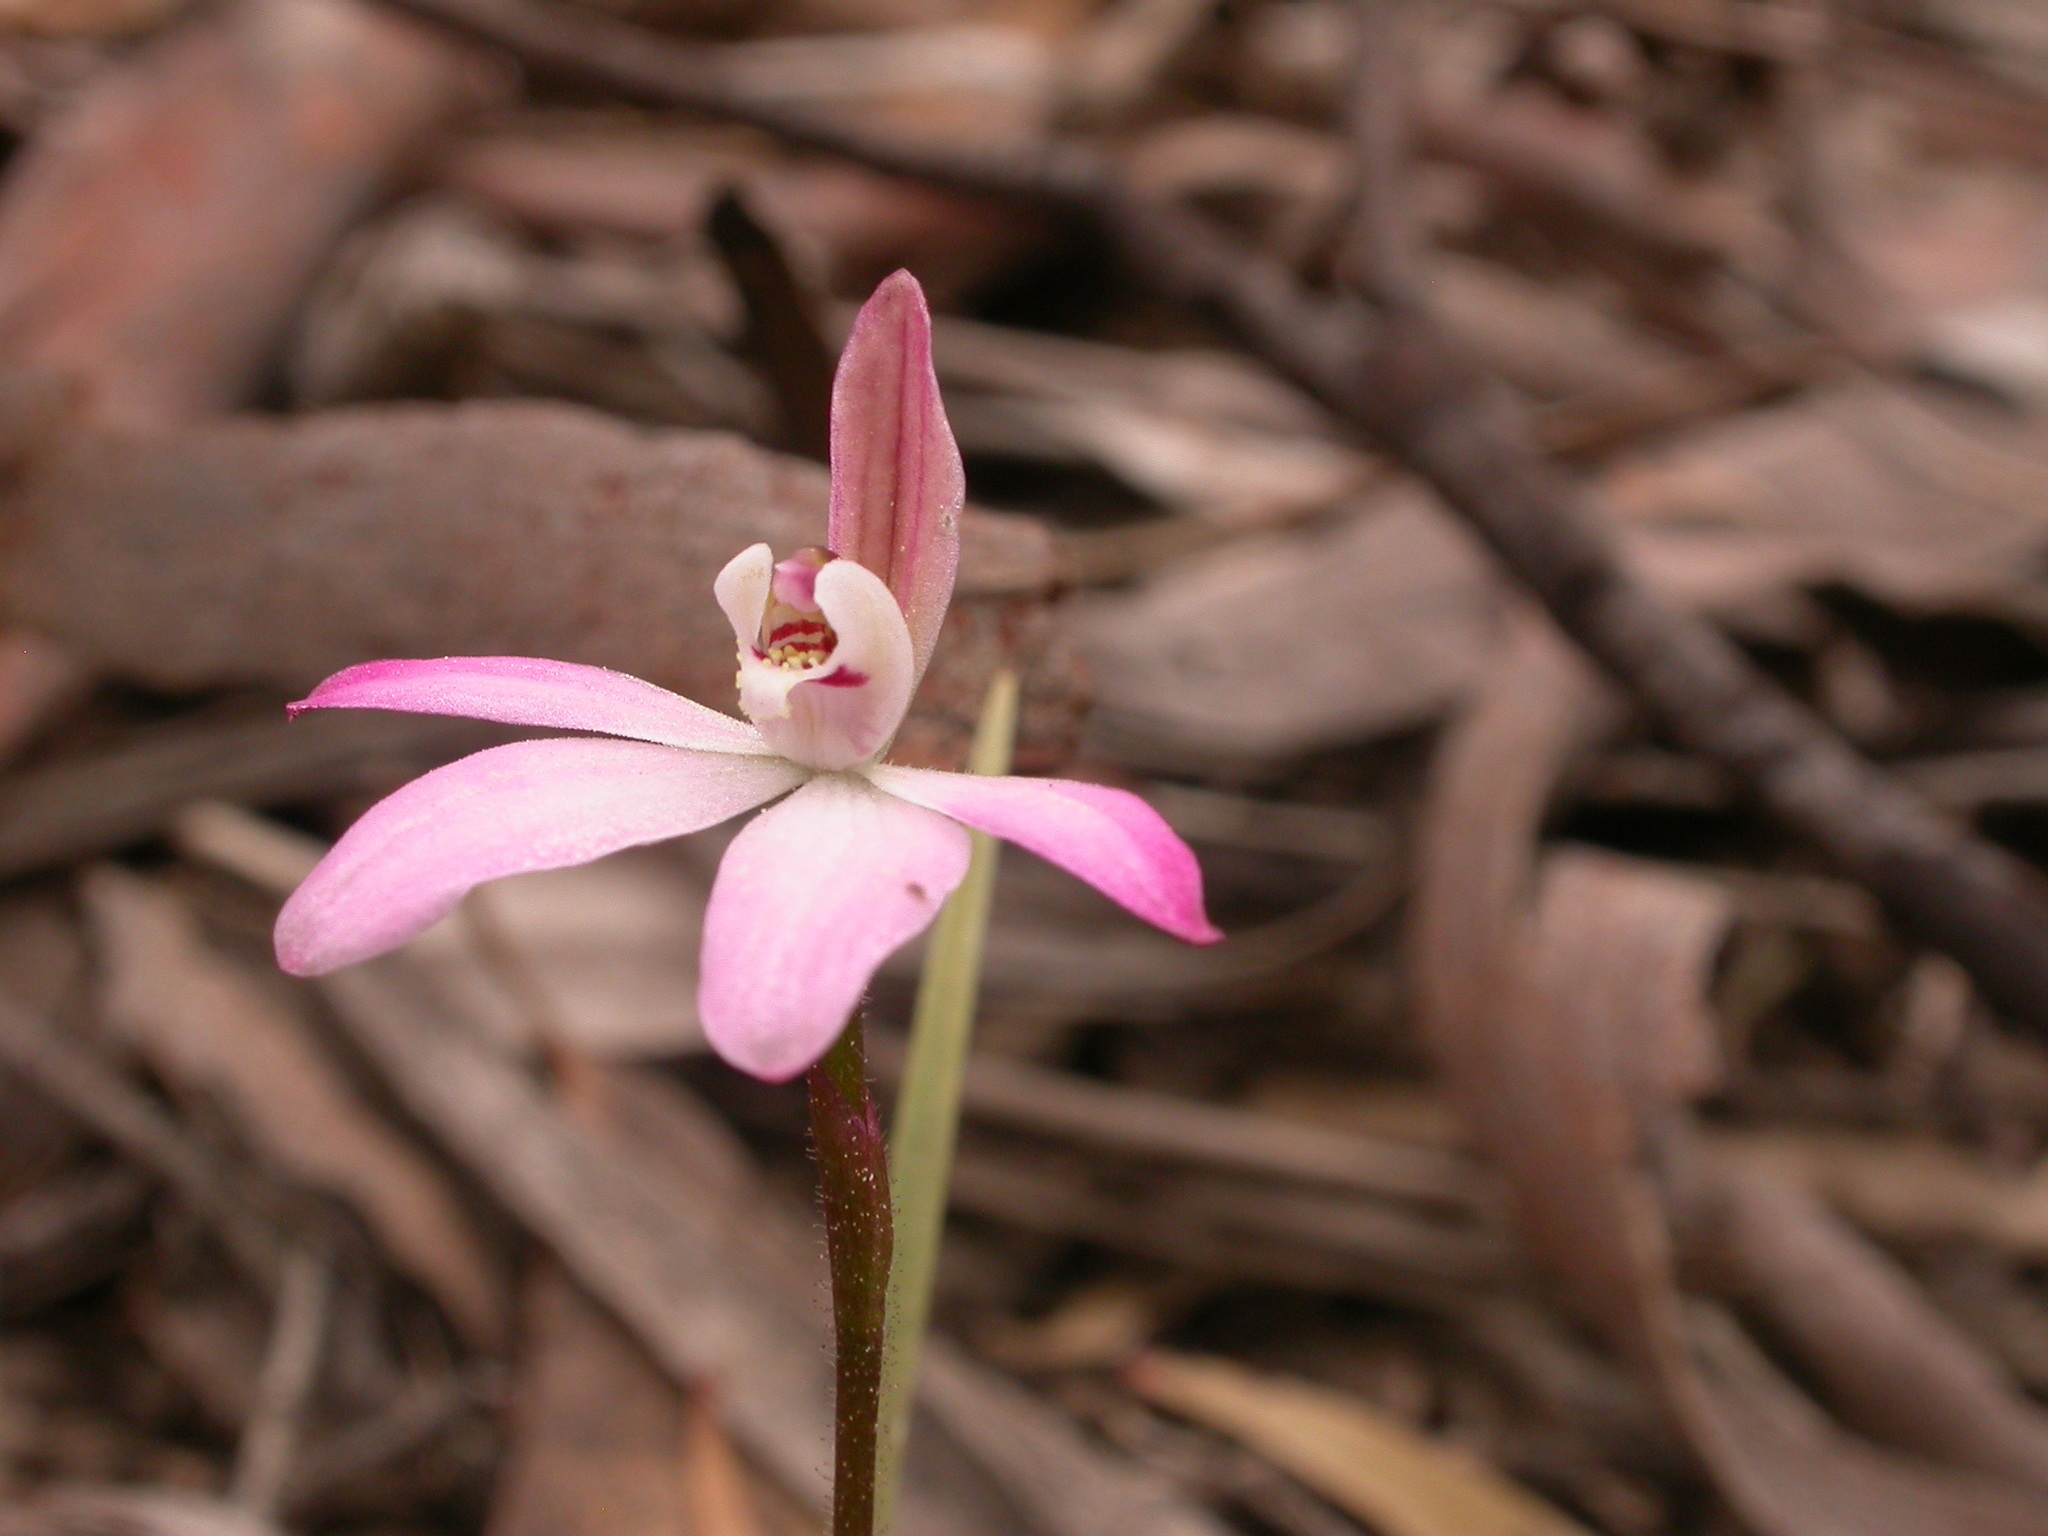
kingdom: Plantae
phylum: Tracheophyta
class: Liliopsida
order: Asparagales
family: Orchidaceae
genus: Caladenia
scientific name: Caladenia fuscata
